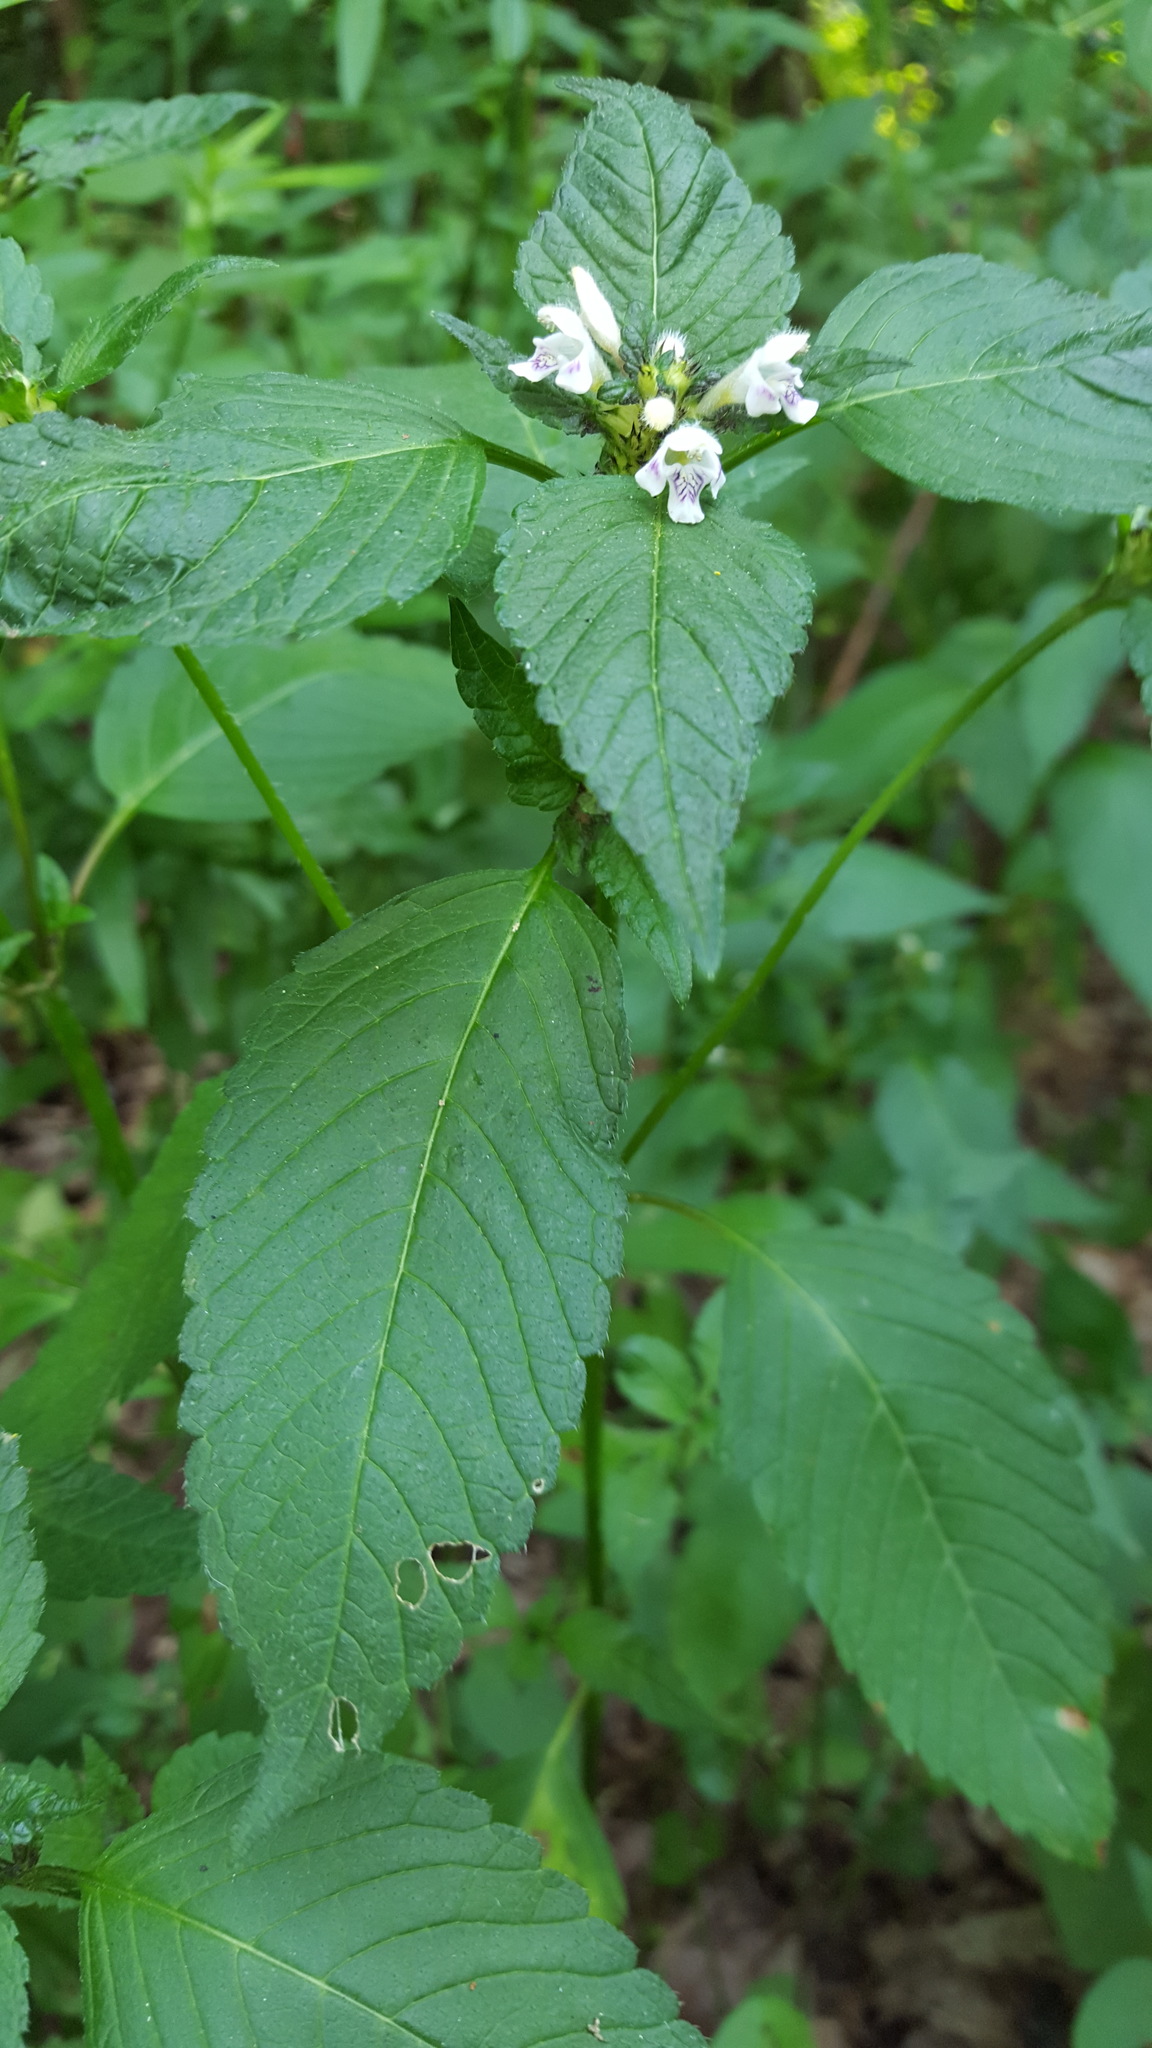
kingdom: Plantae
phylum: Tracheophyta
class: Magnoliopsida
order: Lamiales
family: Lamiaceae
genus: Galeopsis
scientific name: Galeopsis tetrahit
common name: Common hemp-nettle
